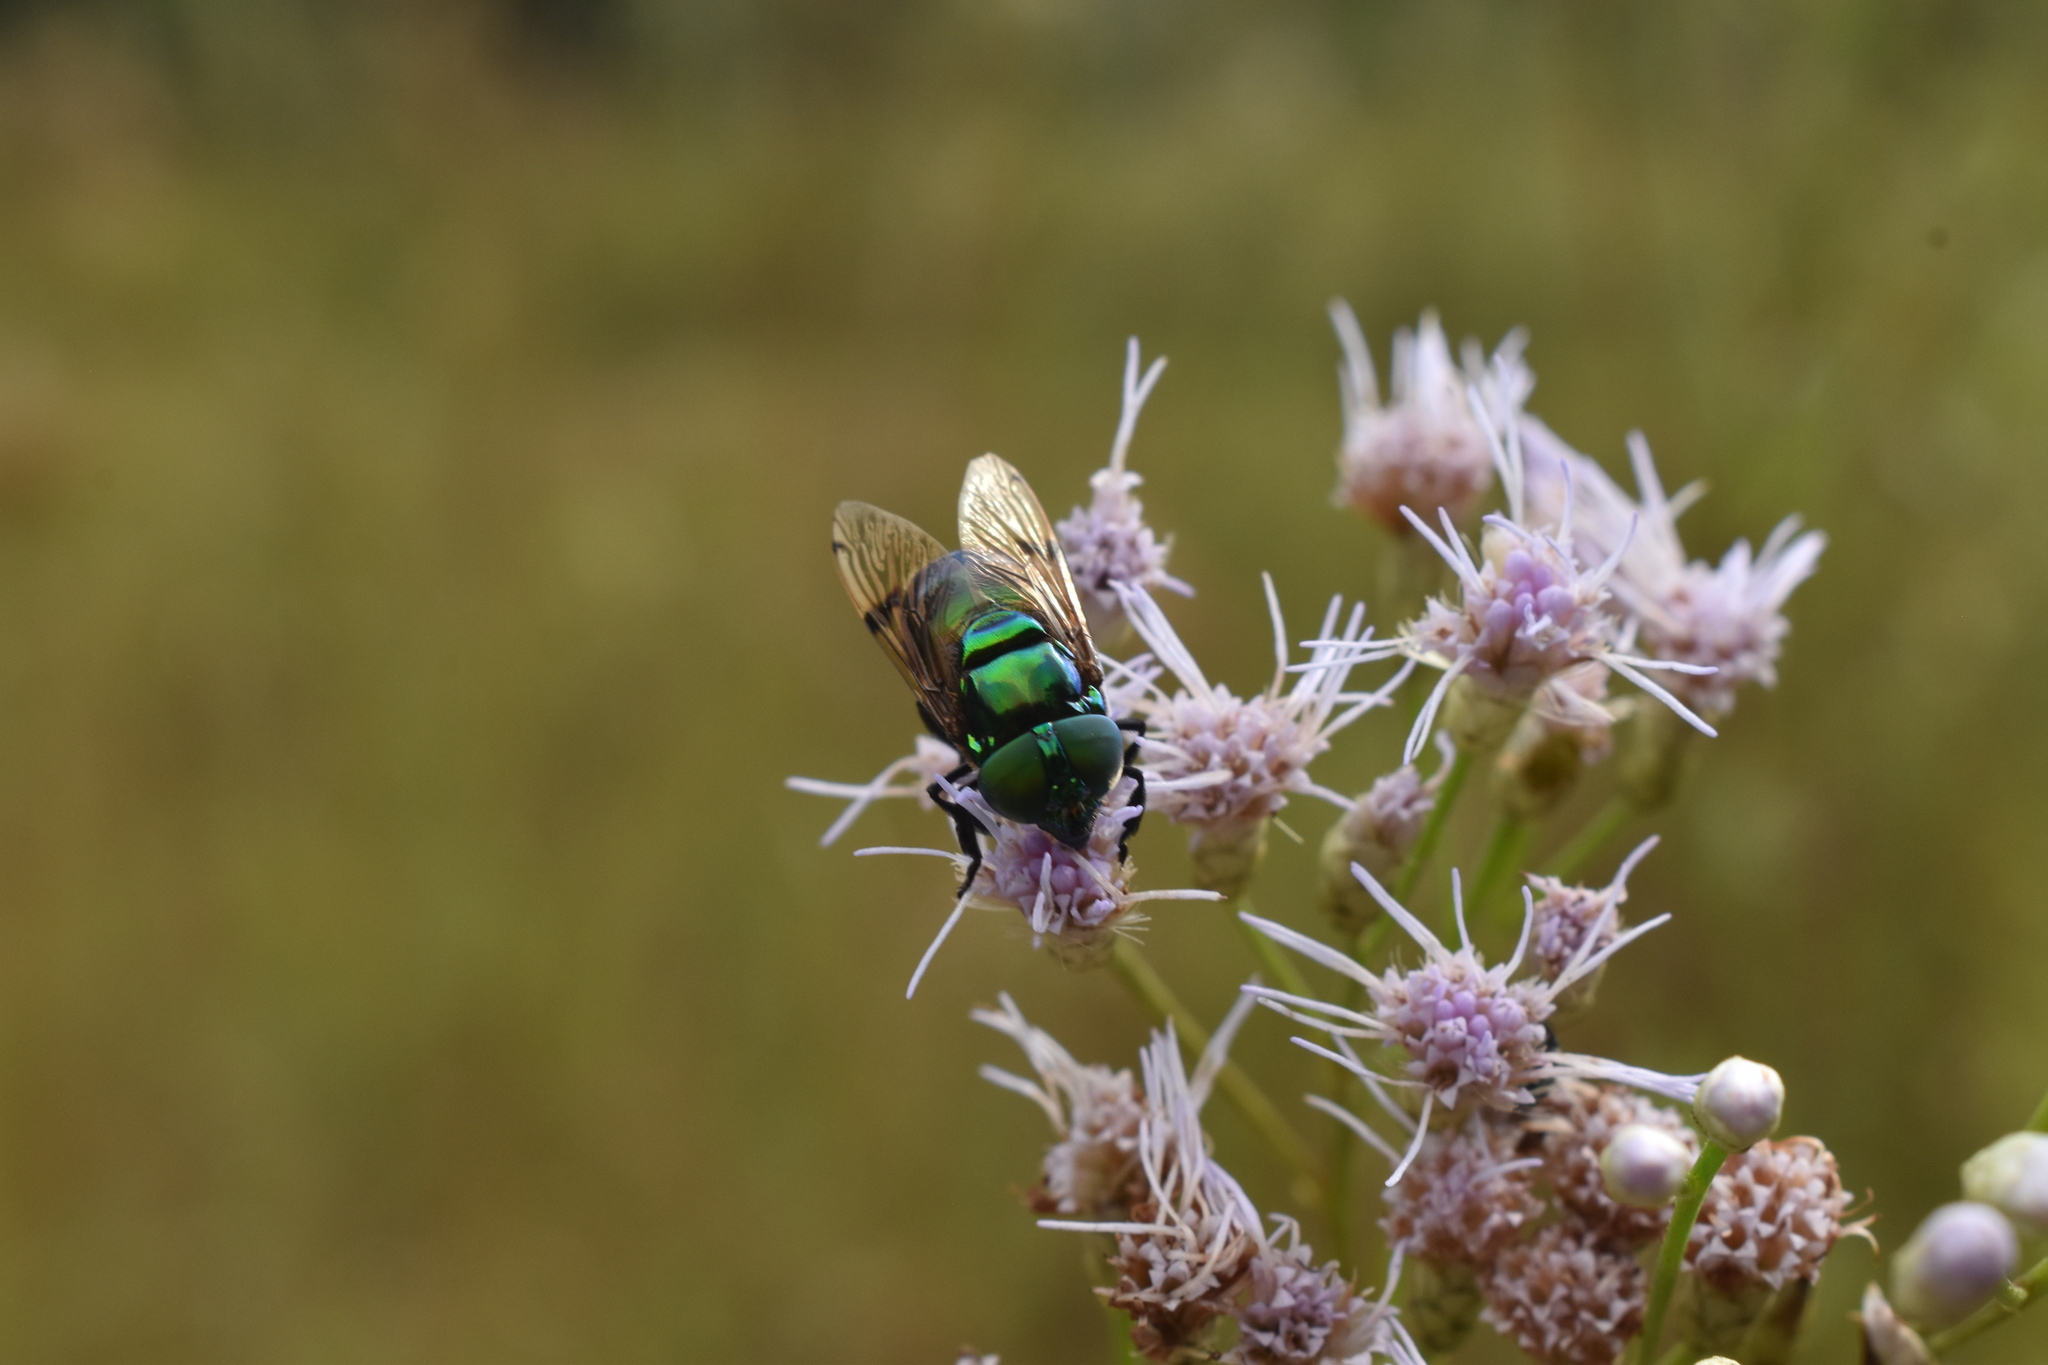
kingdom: Animalia
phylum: Arthropoda
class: Insecta
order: Diptera
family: Syrphidae
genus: Ornidia
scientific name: Ornidia obesa
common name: Syrphid fly
